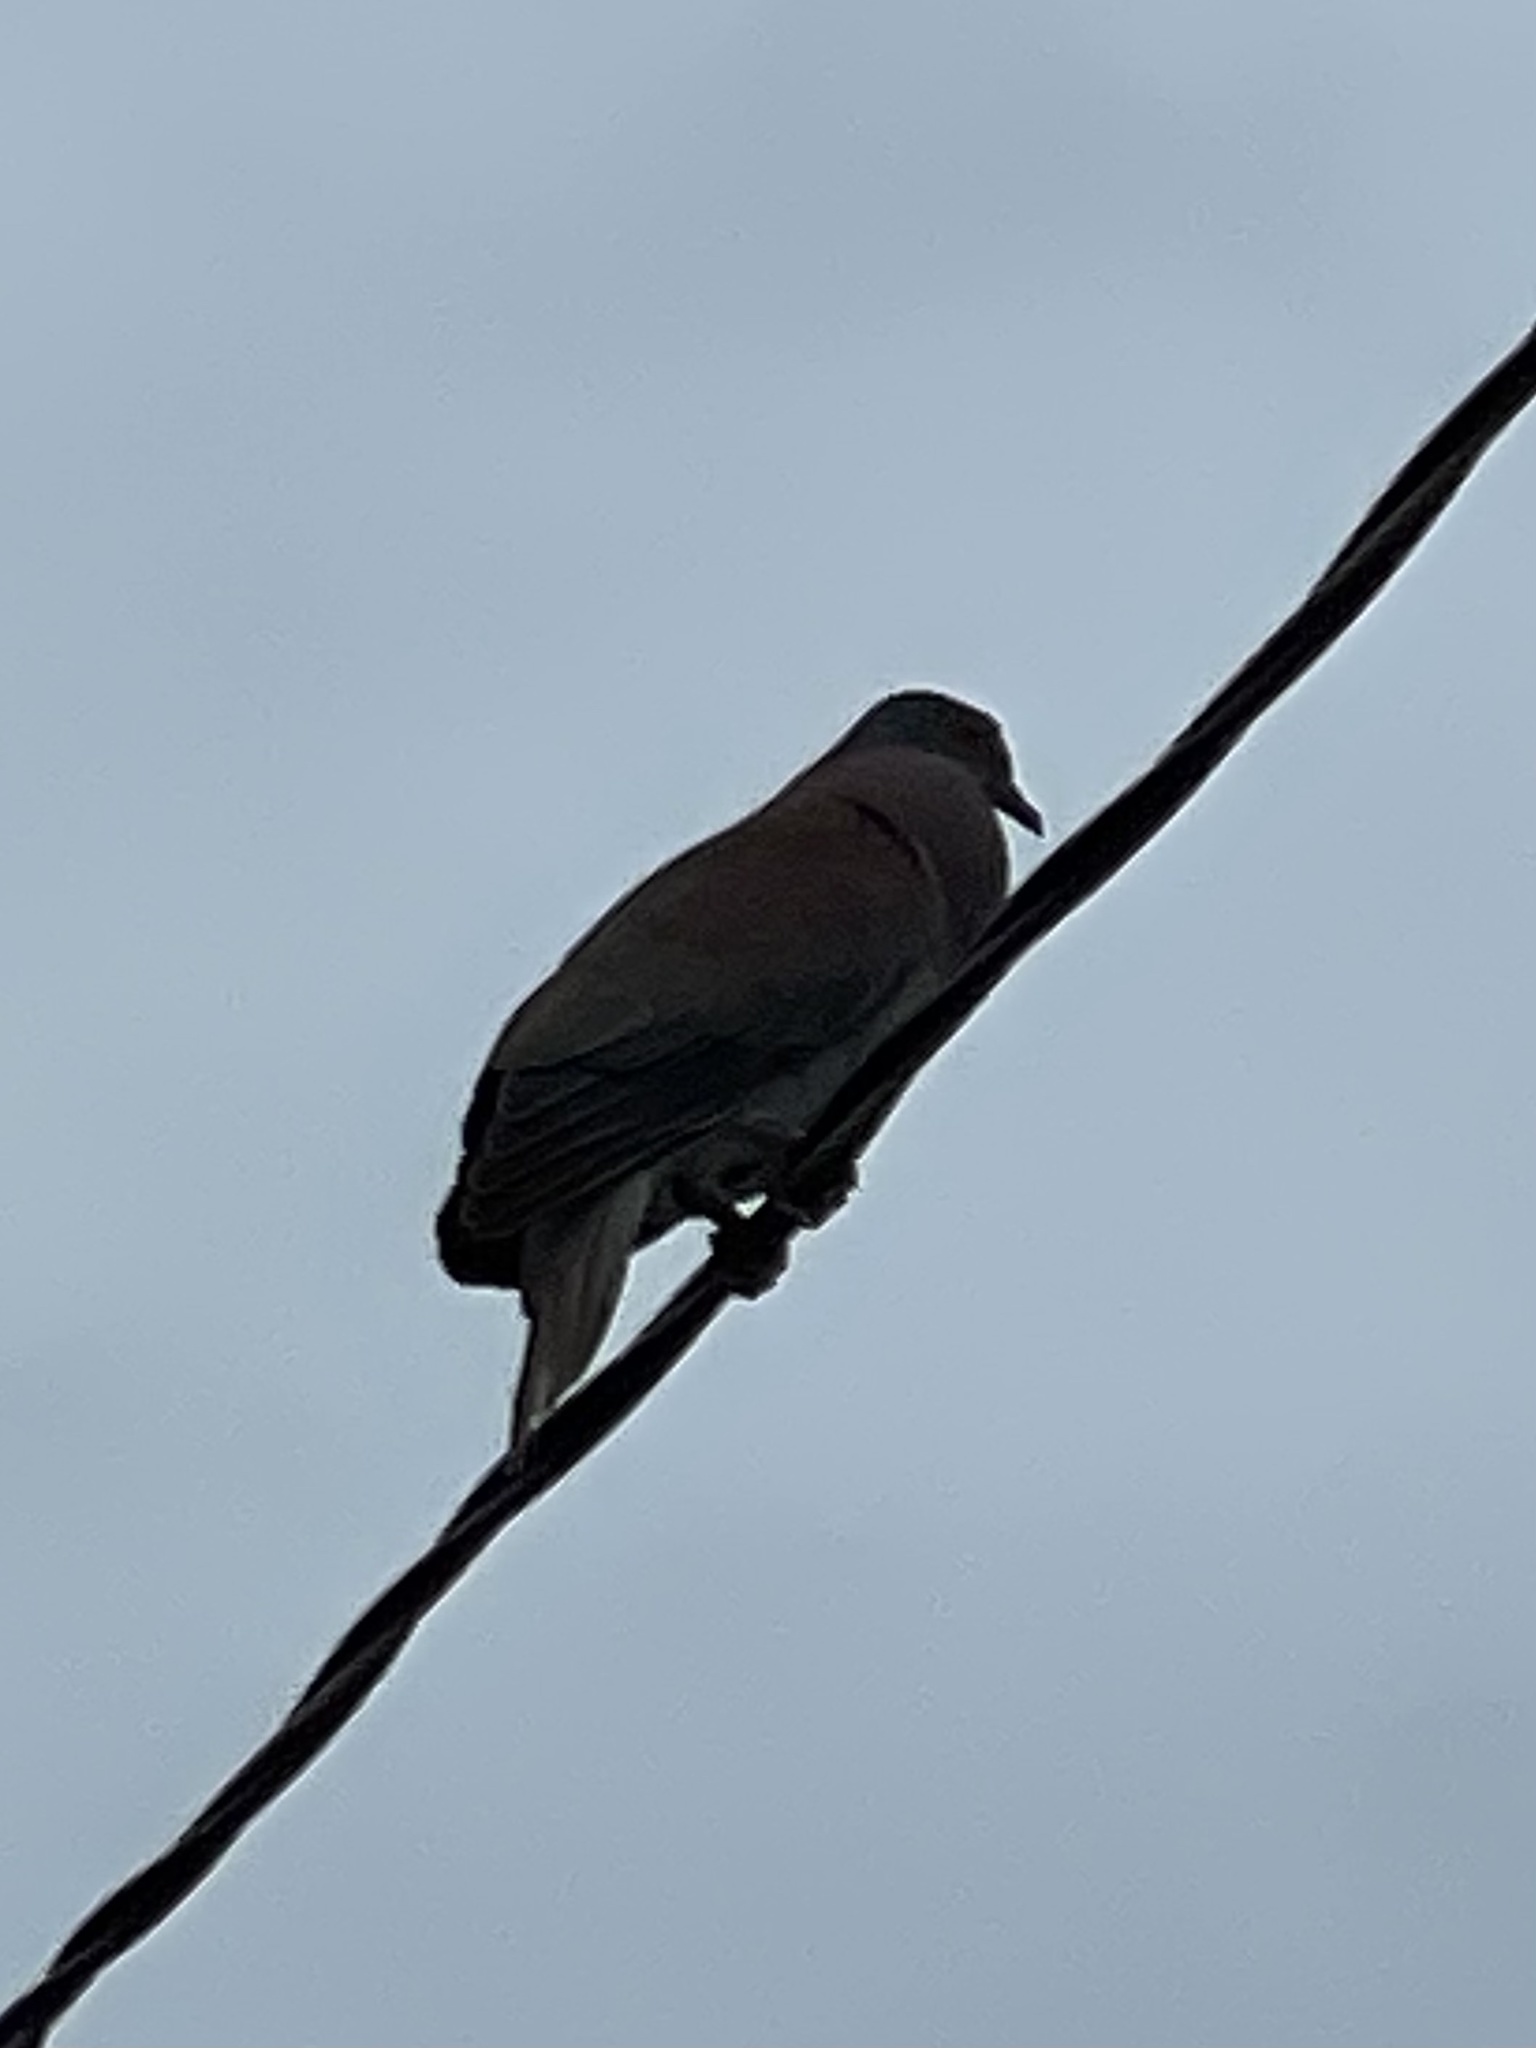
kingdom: Animalia
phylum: Chordata
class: Aves
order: Columbiformes
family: Columbidae
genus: Patagioenas
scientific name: Patagioenas cayennensis
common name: Pale-vented pigeon
